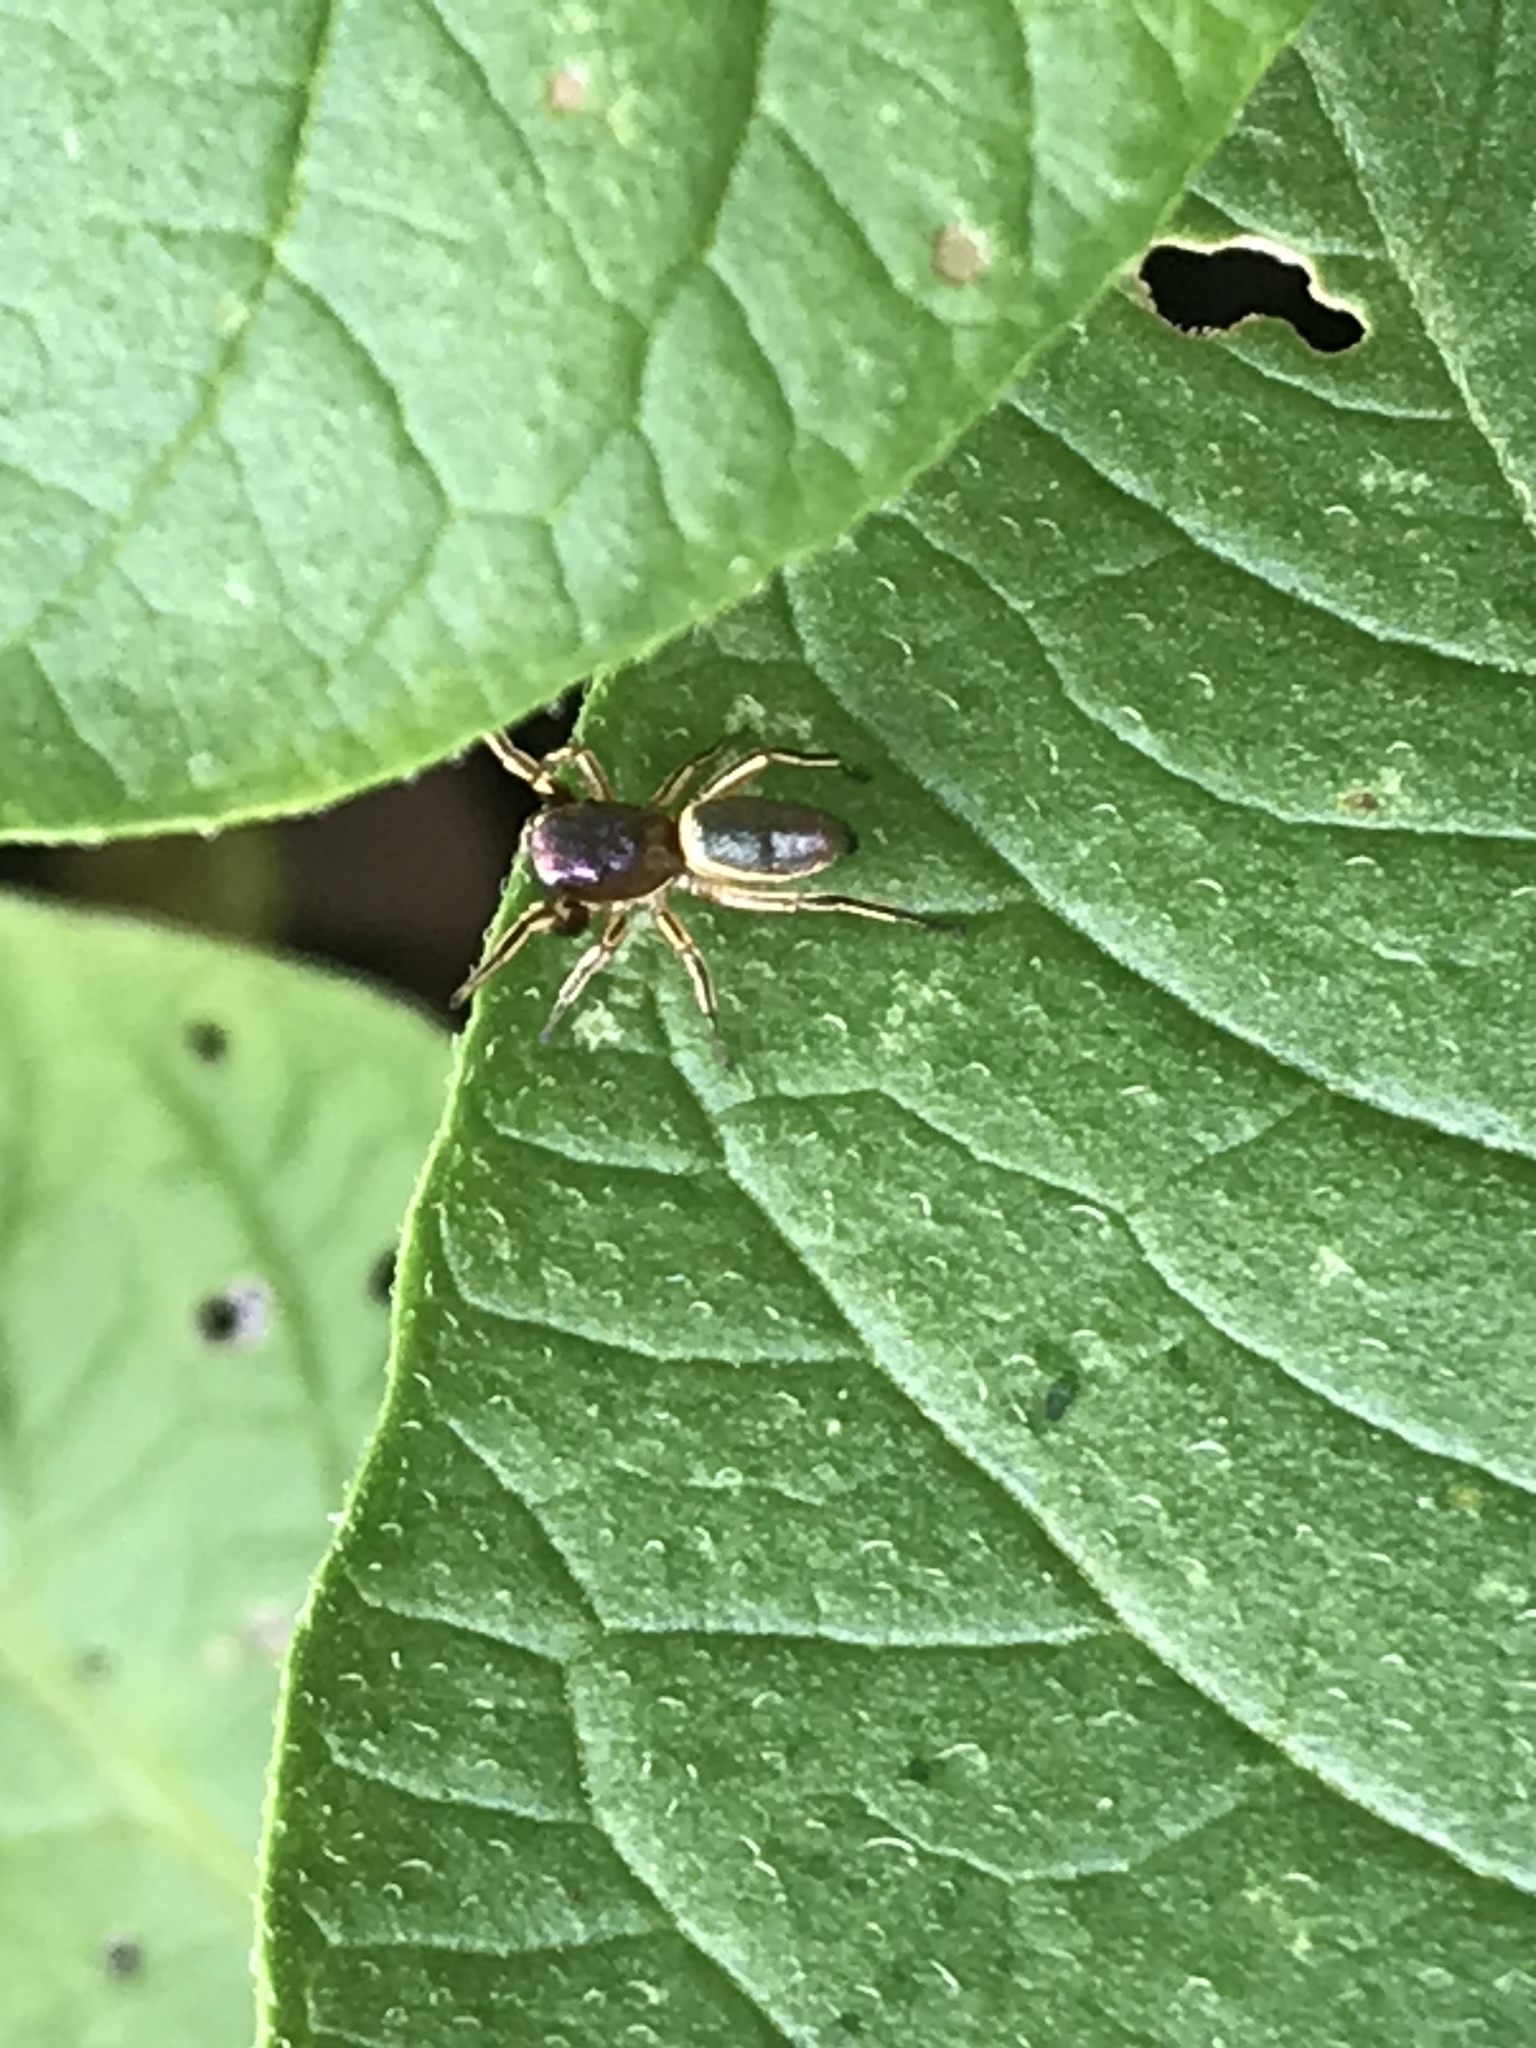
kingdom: Animalia
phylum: Arthropoda
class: Arachnida
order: Araneae
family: Salticidae
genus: Tutelina
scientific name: Tutelina elegans
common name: Thin-spined jumping spider
